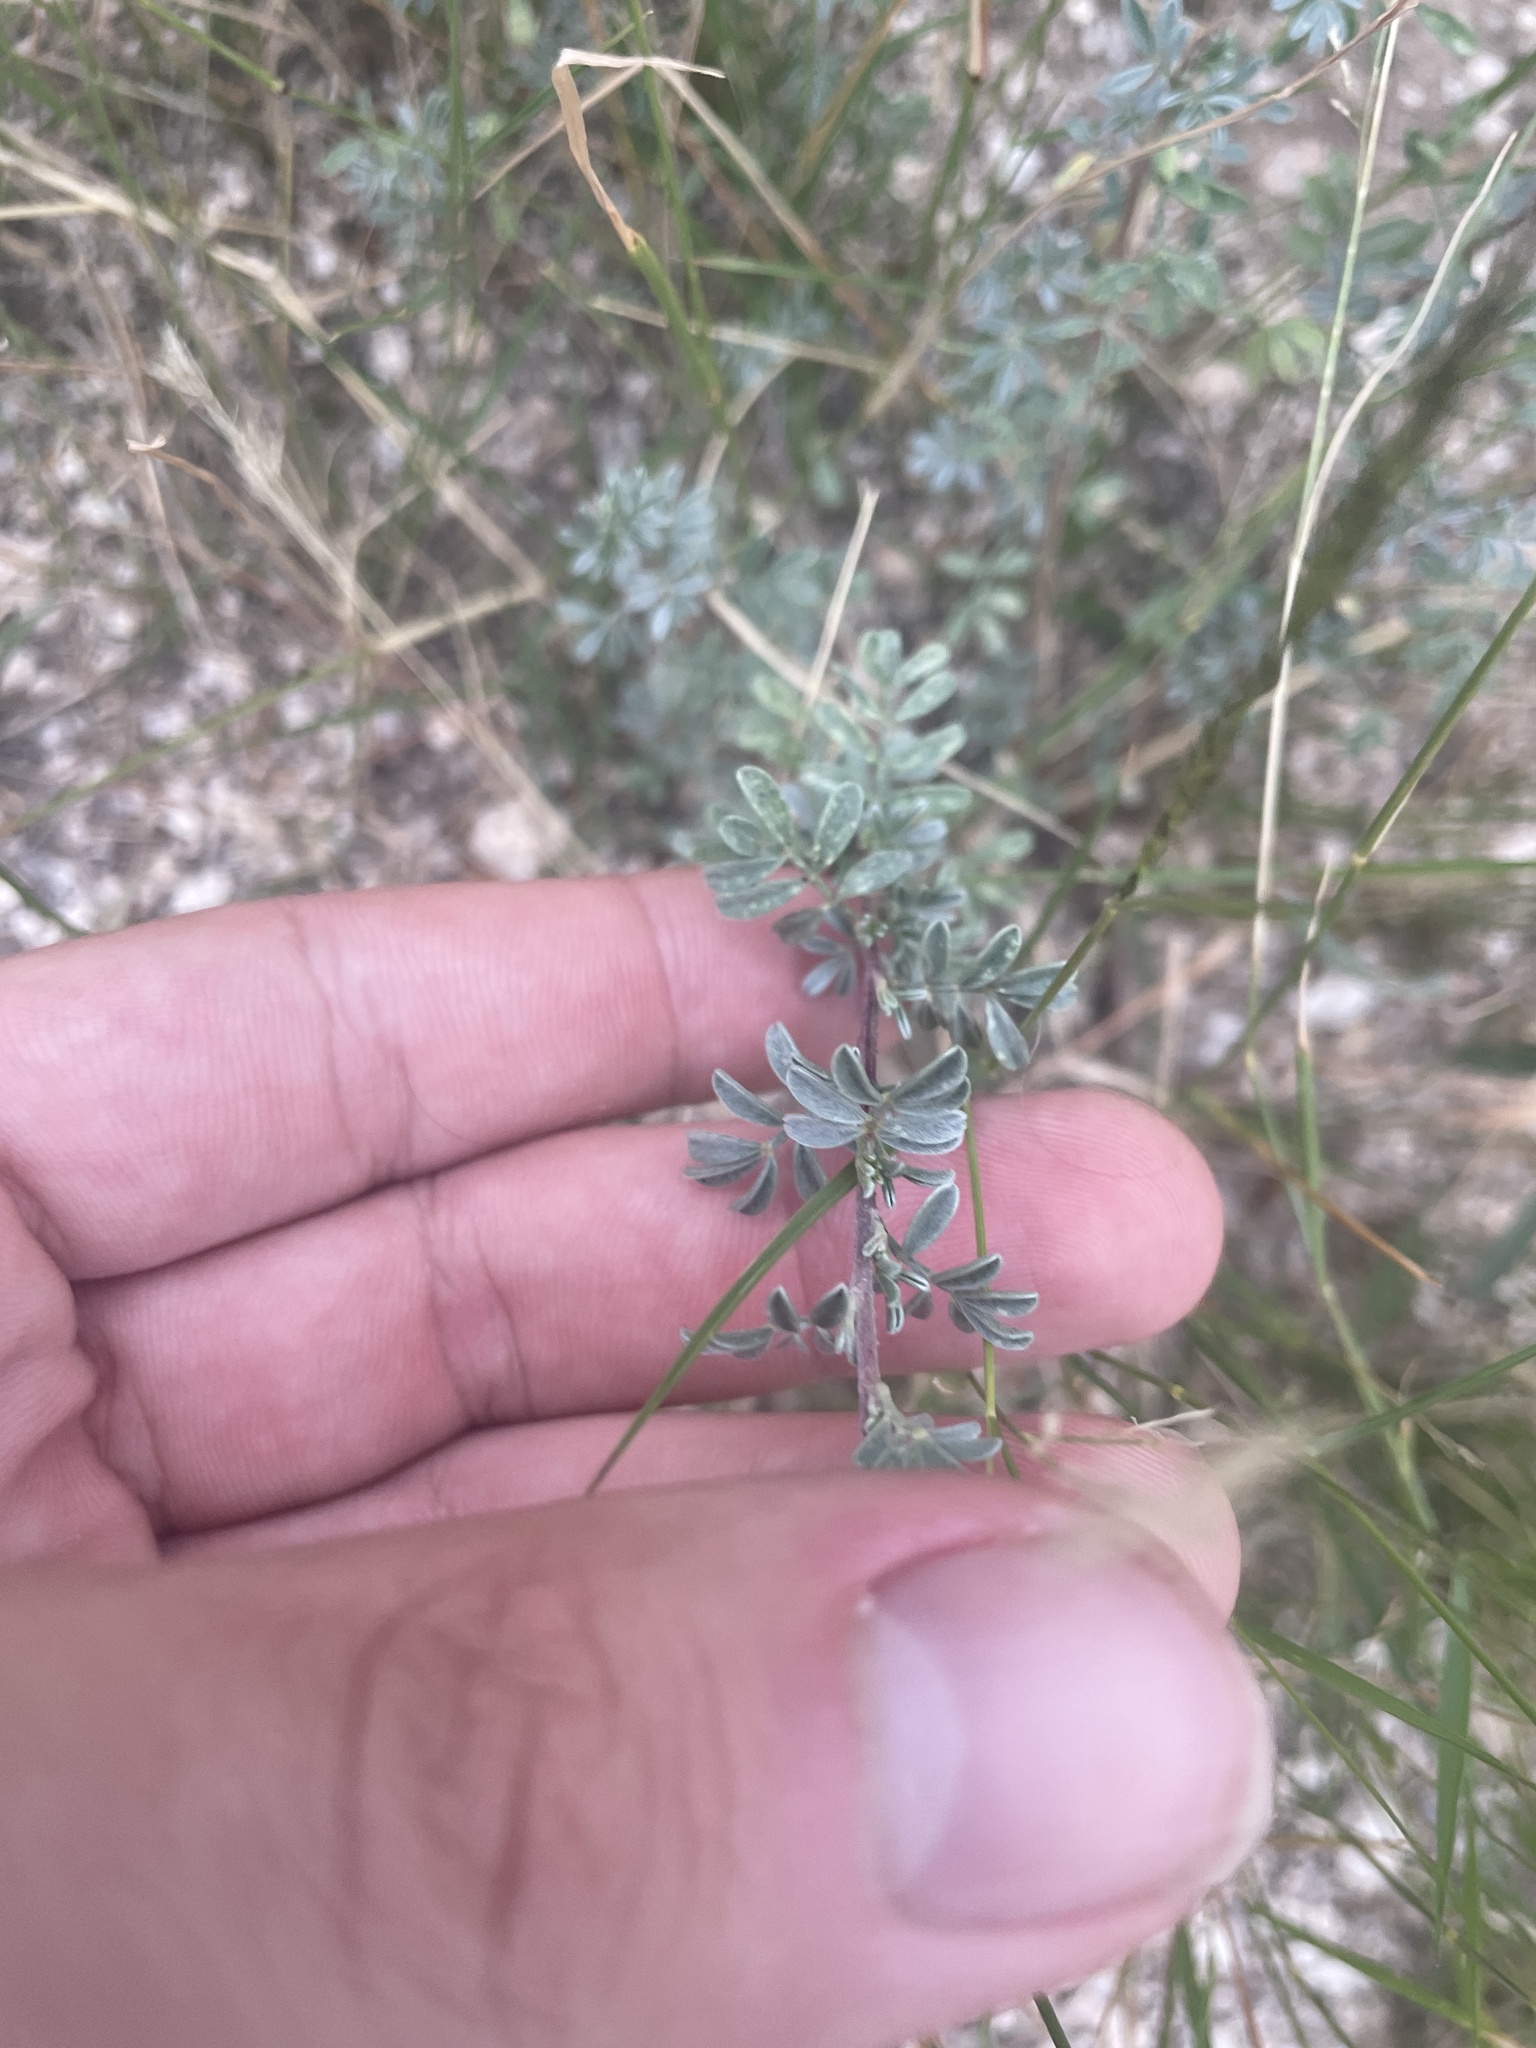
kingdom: Plantae
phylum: Tracheophyta
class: Magnoliopsida
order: Fabales
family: Fabaceae
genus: Dalea
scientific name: Dalea pulchra
